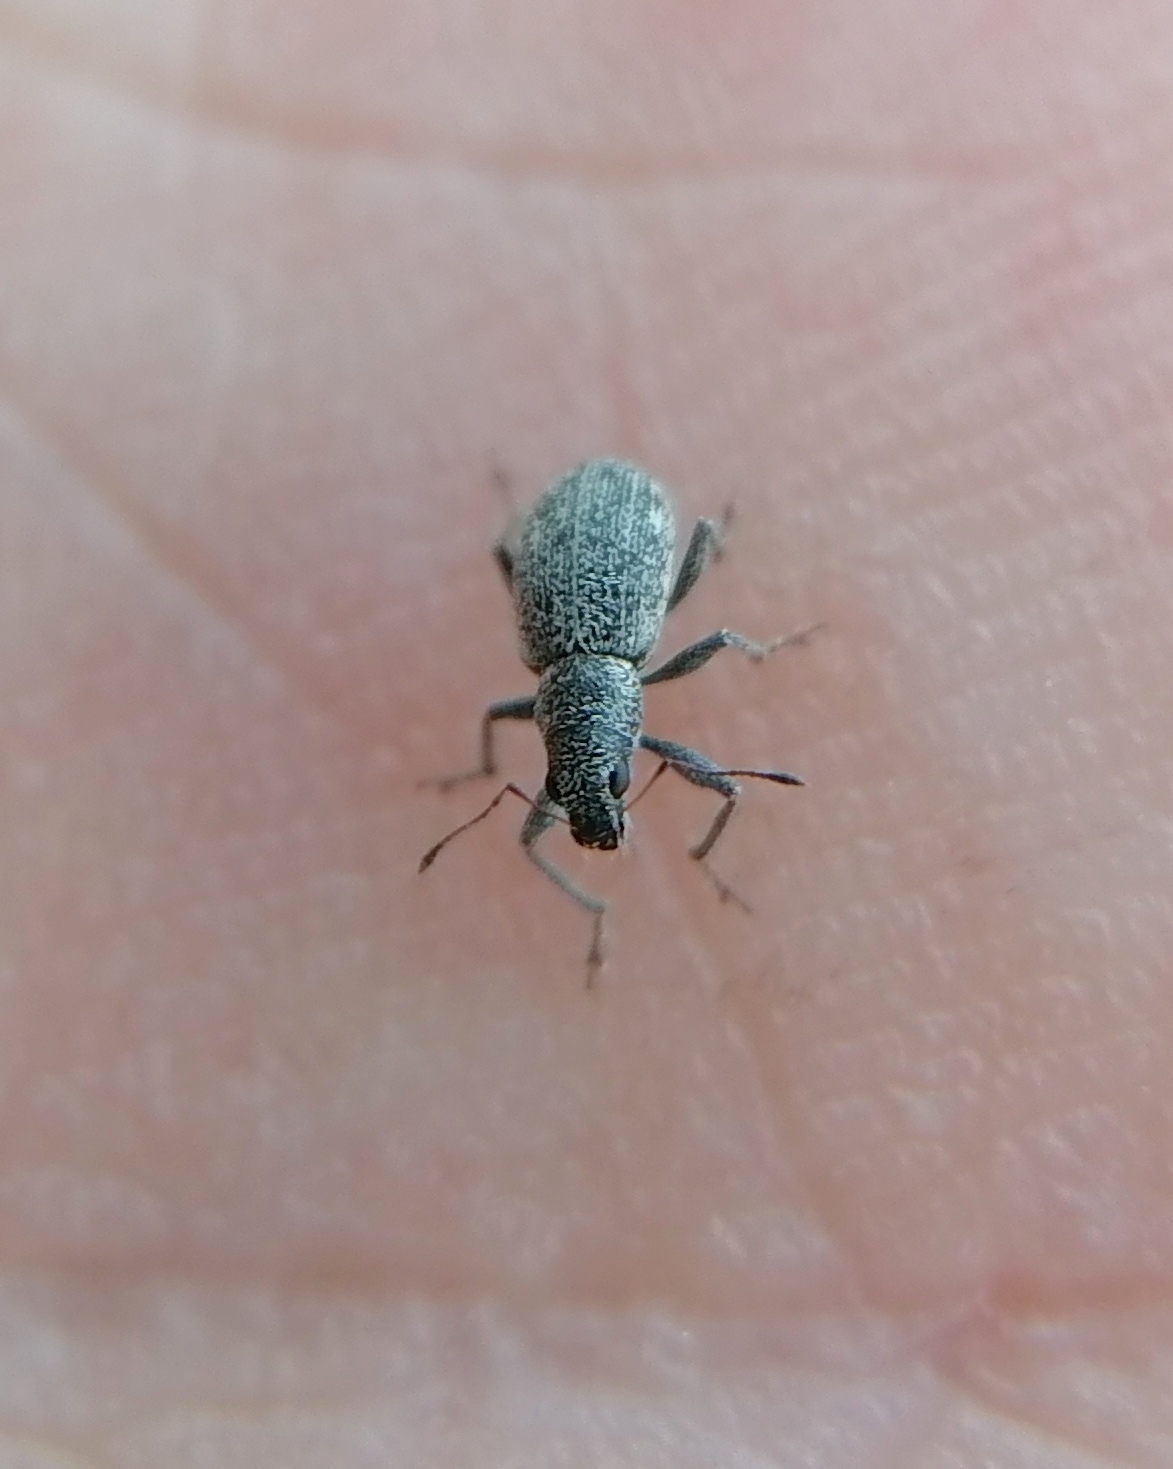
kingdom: Animalia
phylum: Arthropoda
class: Insecta
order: Coleoptera
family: Curculionidae
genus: Polydrusus
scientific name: Polydrusus inustus
